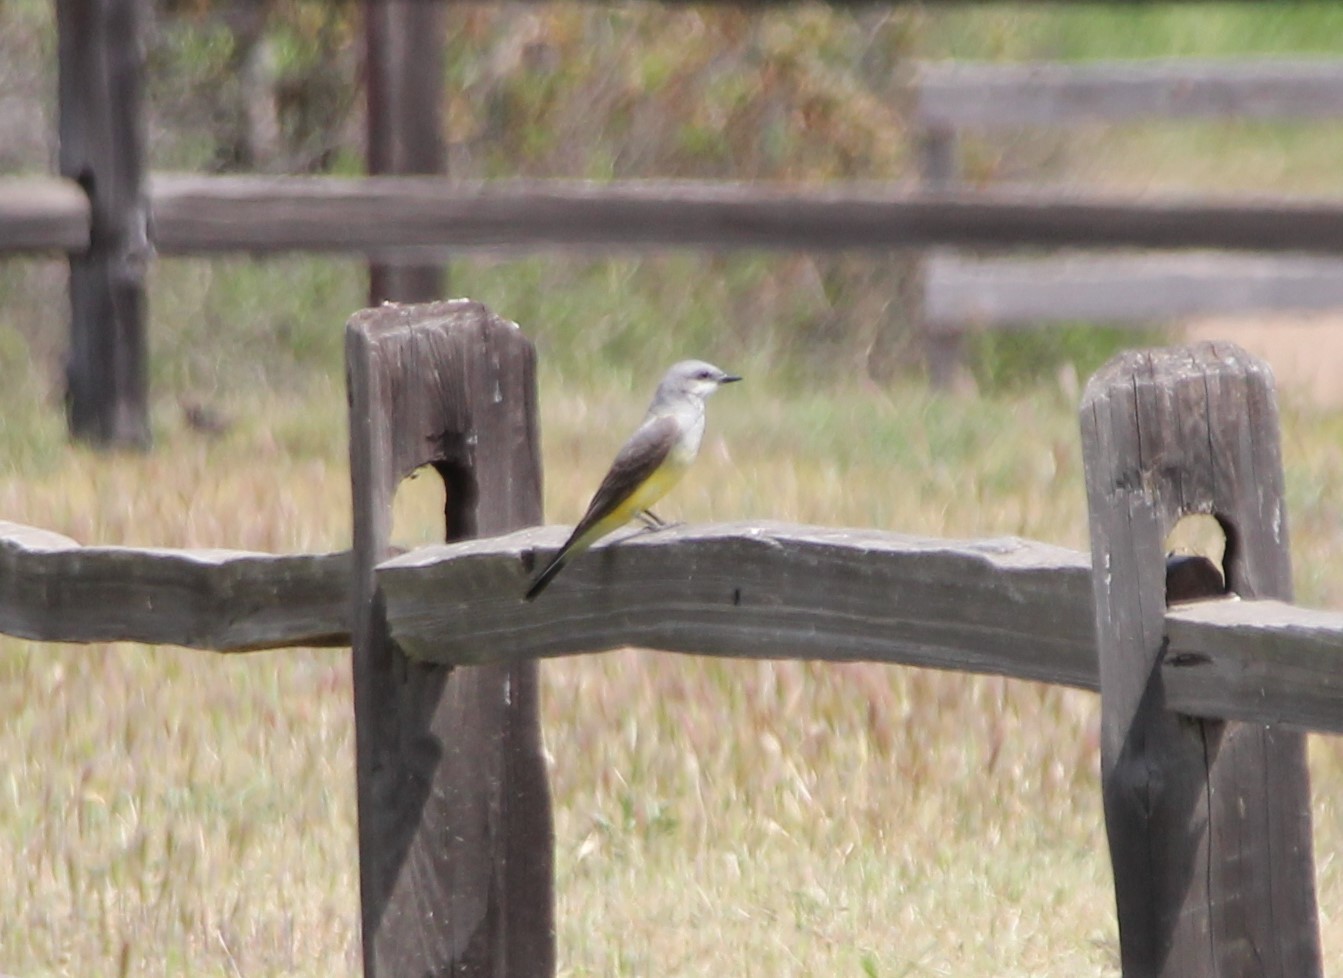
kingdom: Animalia
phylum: Chordata
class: Aves
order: Passeriformes
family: Tyrannidae
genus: Tyrannus
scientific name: Tyrannus verticalis
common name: Western kingbird
